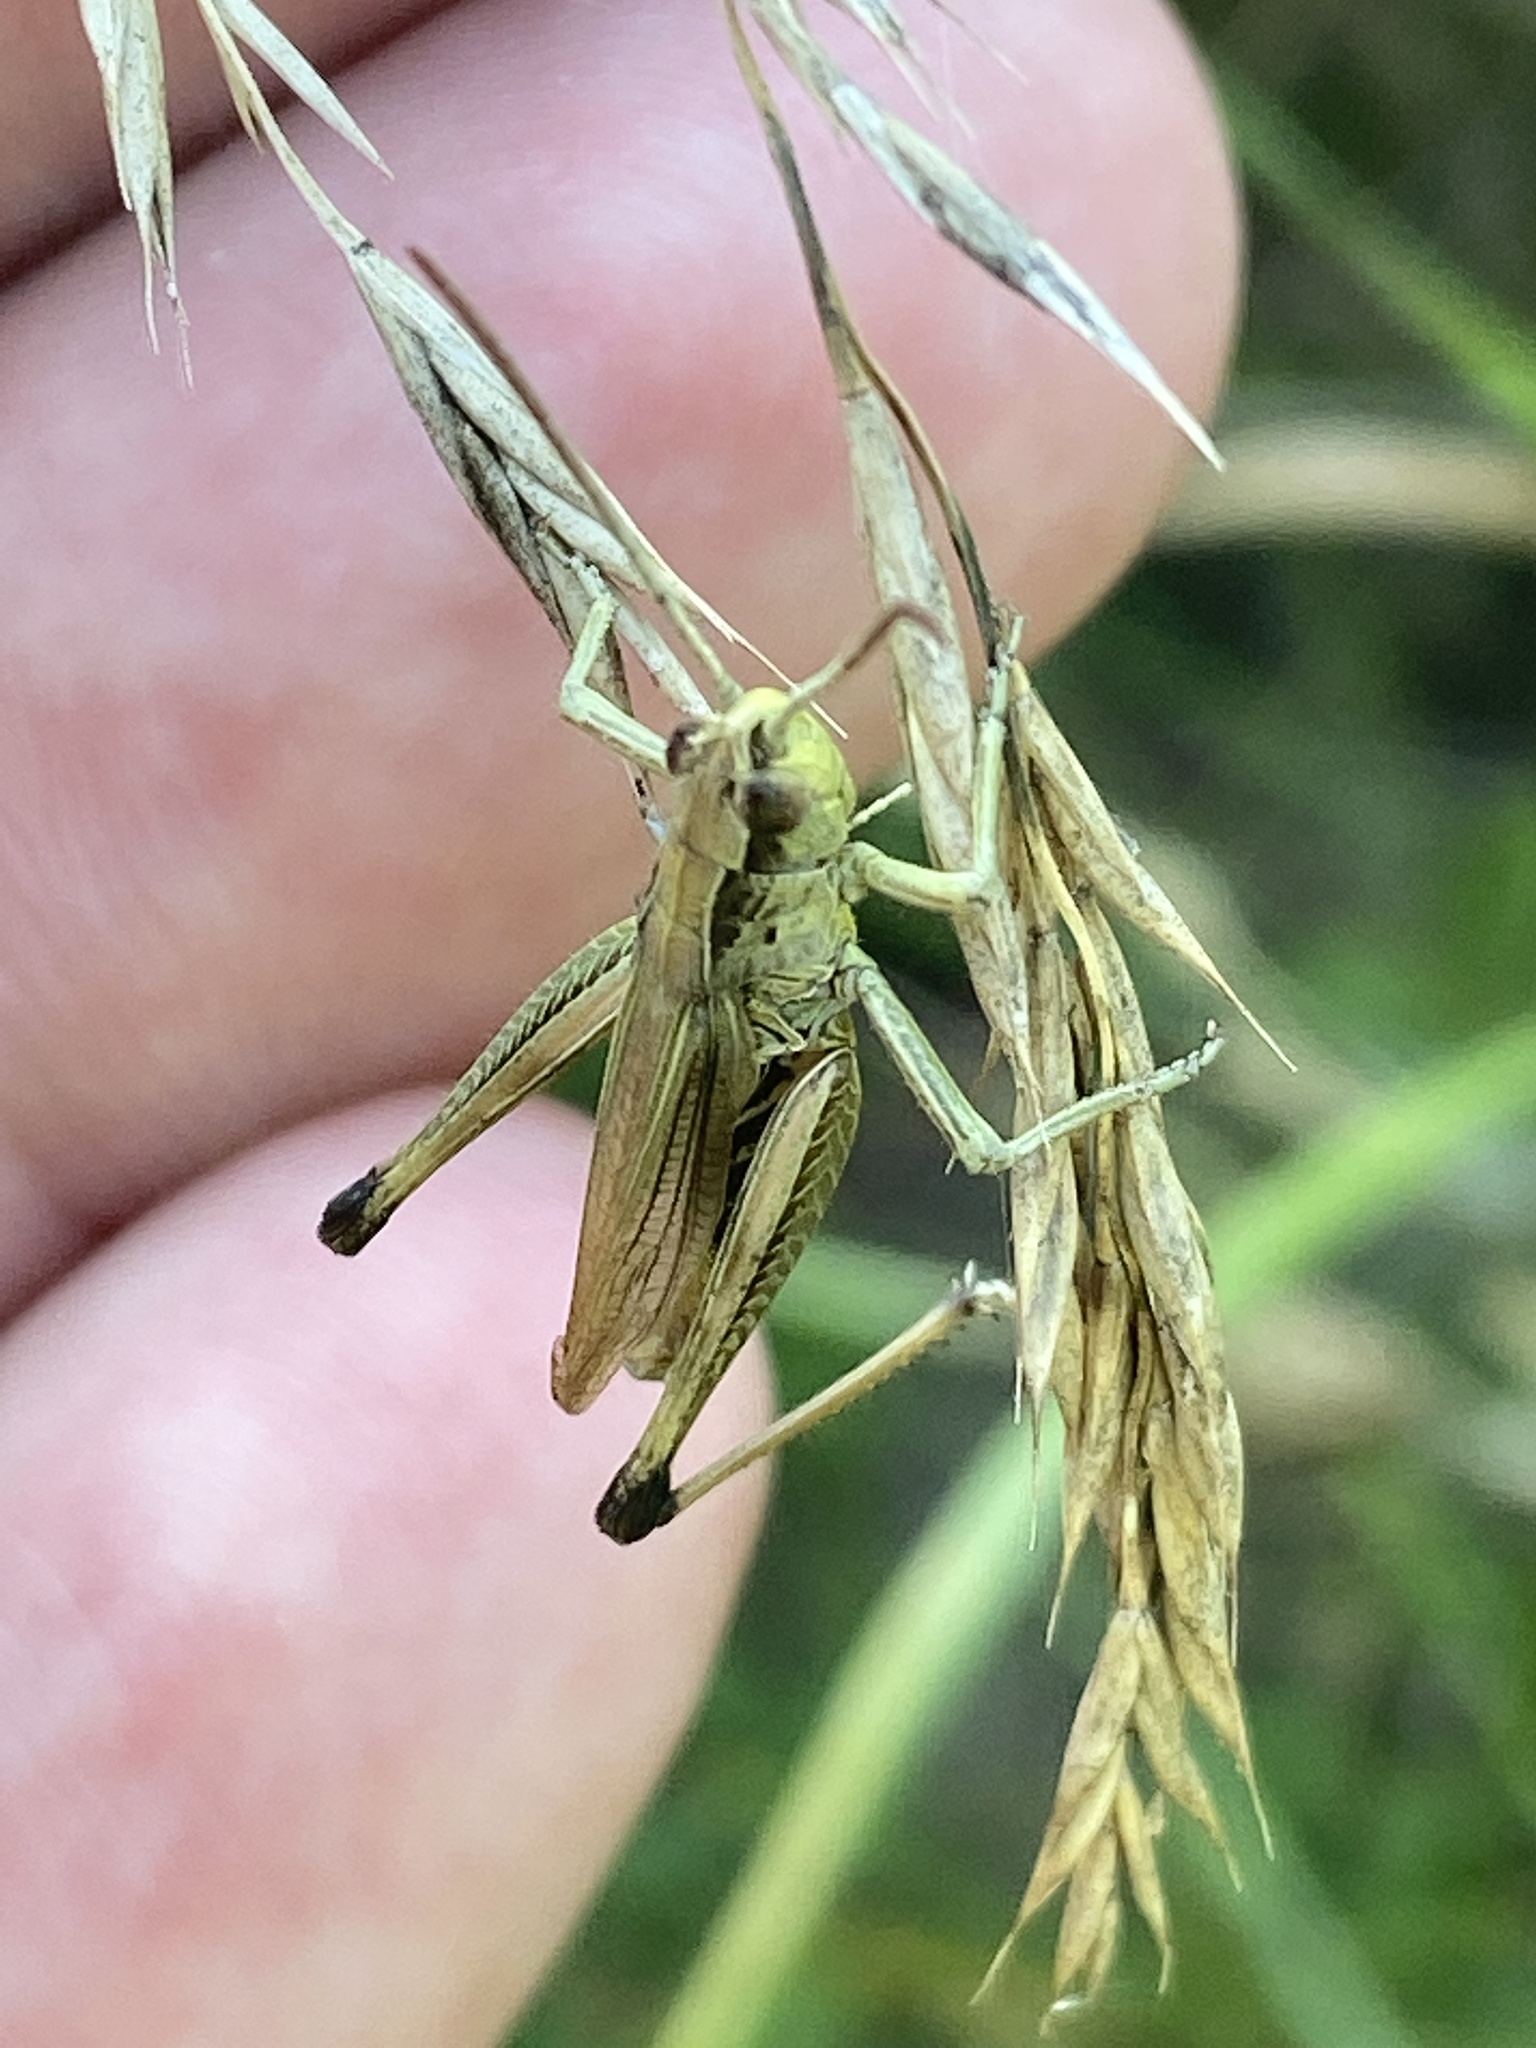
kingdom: Animalia
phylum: Arthropoda
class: Insecta
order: Orthoptera
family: Acrididae
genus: Pseudochorthippus
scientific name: Pseudochorthippus parallelus
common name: Meadow grasshopper
